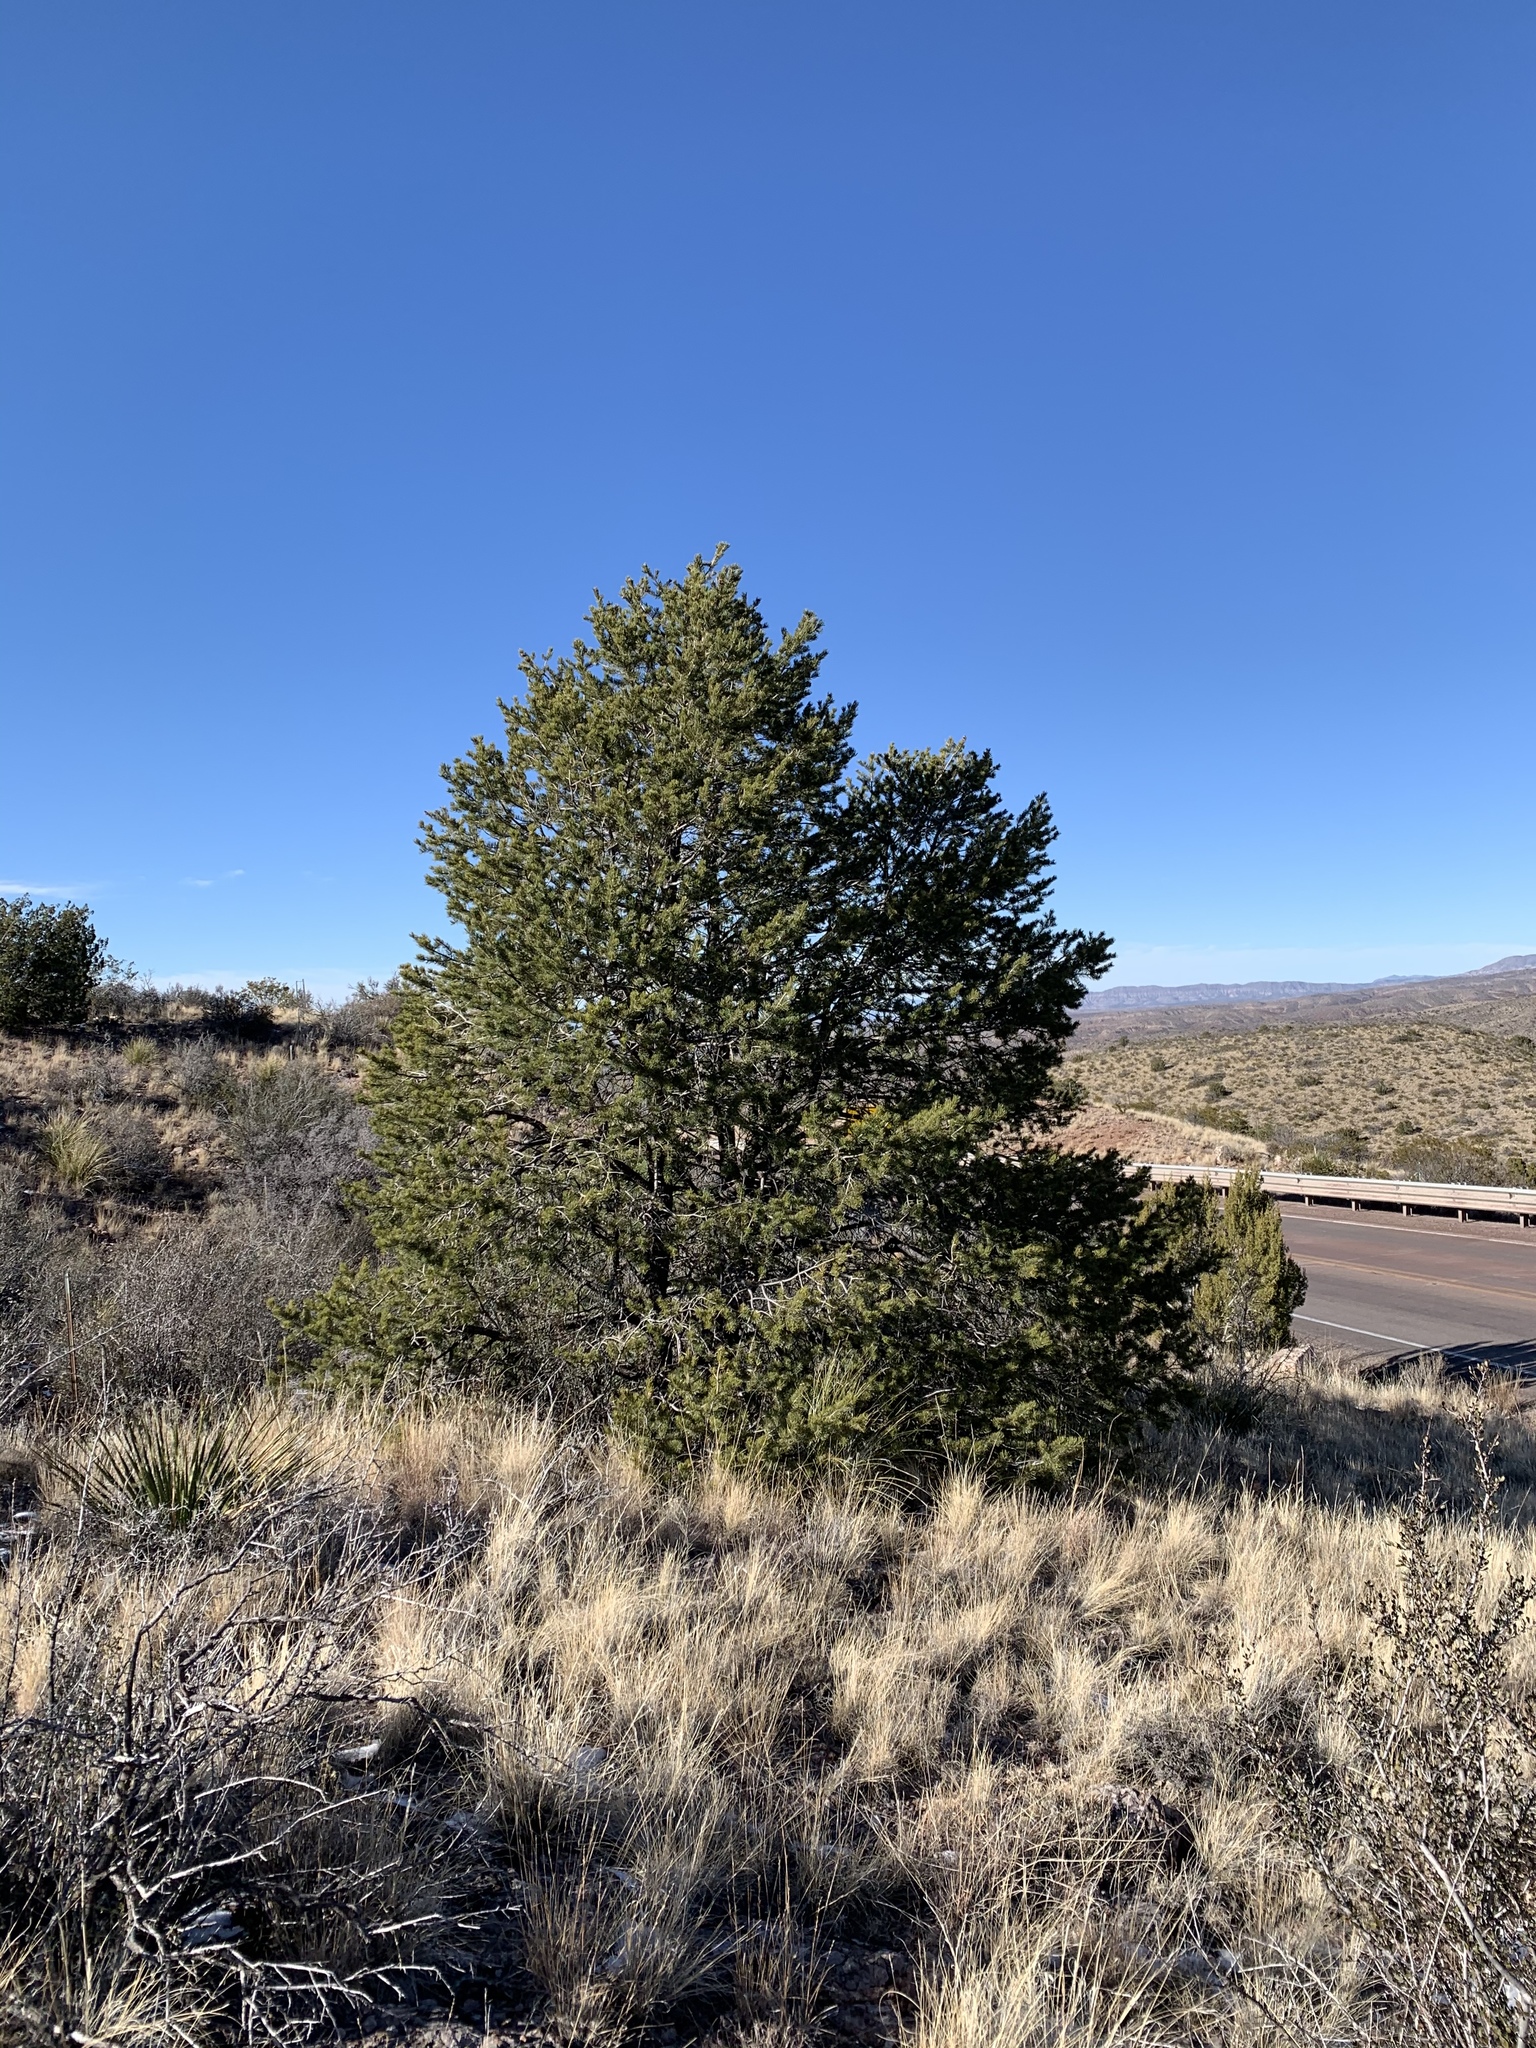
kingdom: Plantae
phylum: Tracheophyta
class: Pinopsida
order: Pinales
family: Pinaceae
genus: Pinus
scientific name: Pinus edulis
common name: Colorado pinyon
